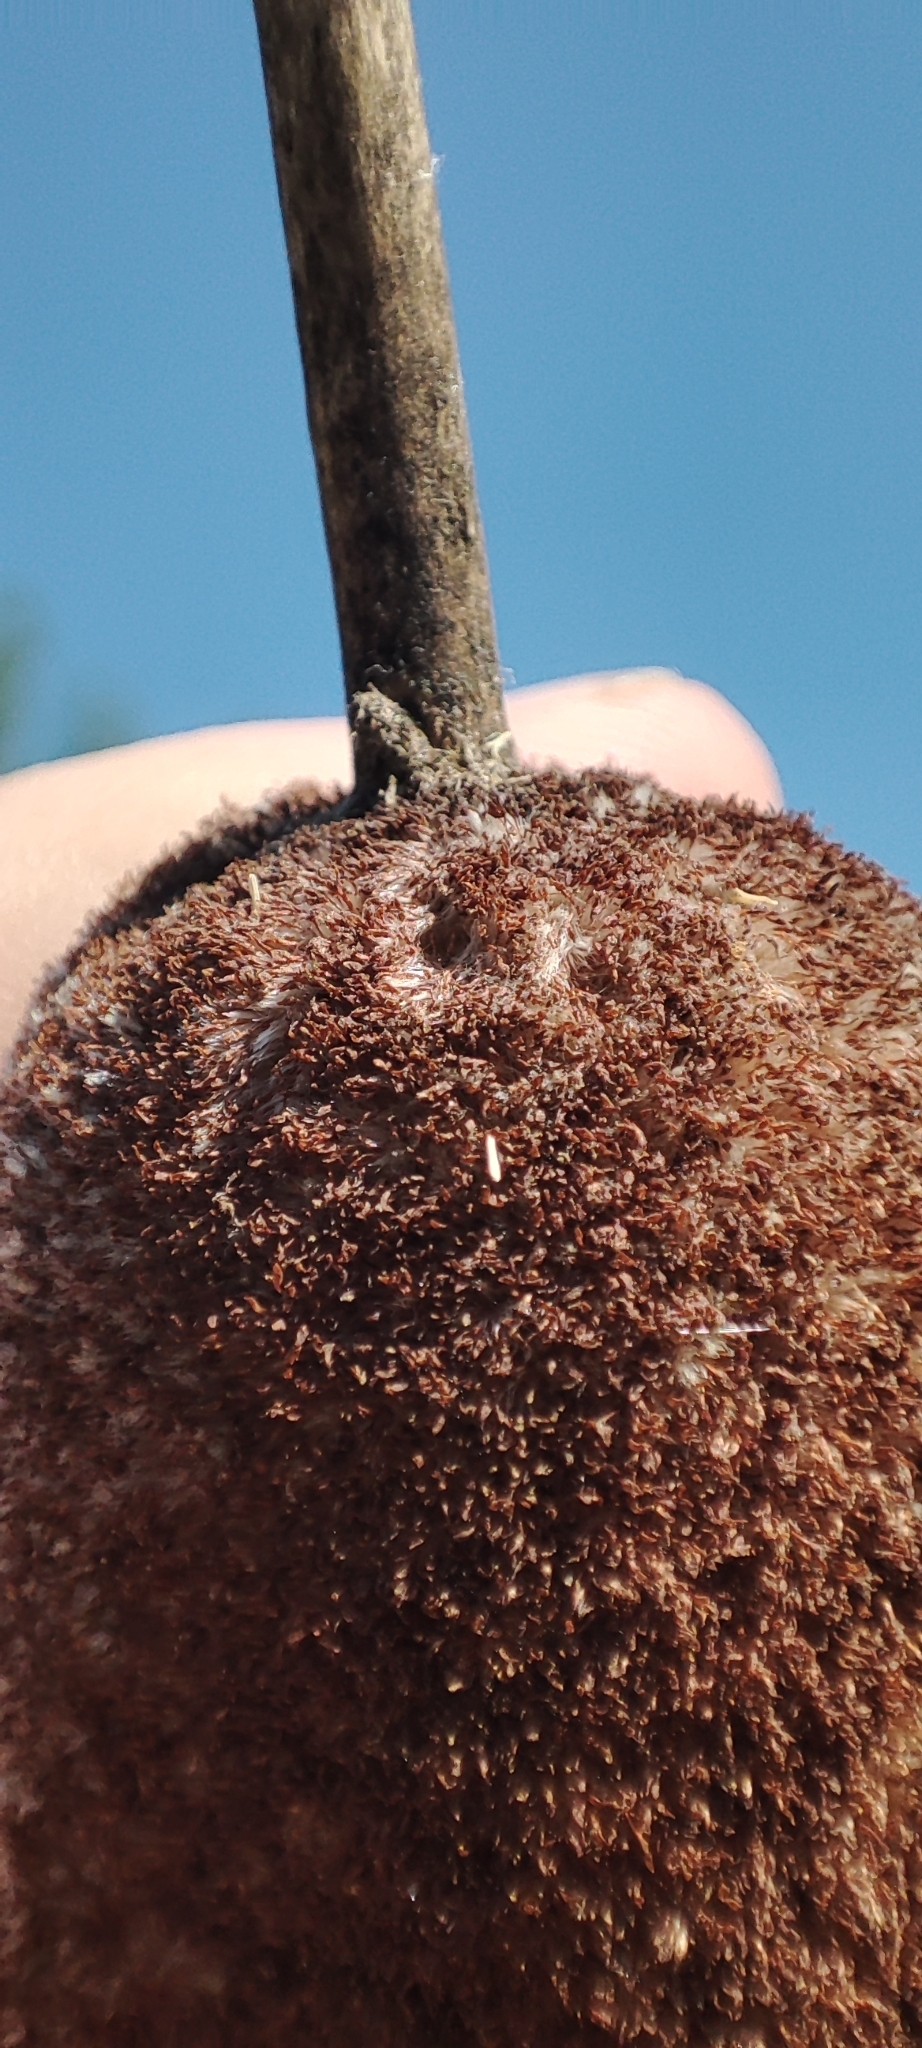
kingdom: Plantae
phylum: Tracheophyta
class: Liliopsida
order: Poales
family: Typhaceae
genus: Typha
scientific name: Typha latifolia
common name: Broadleaf cattail
